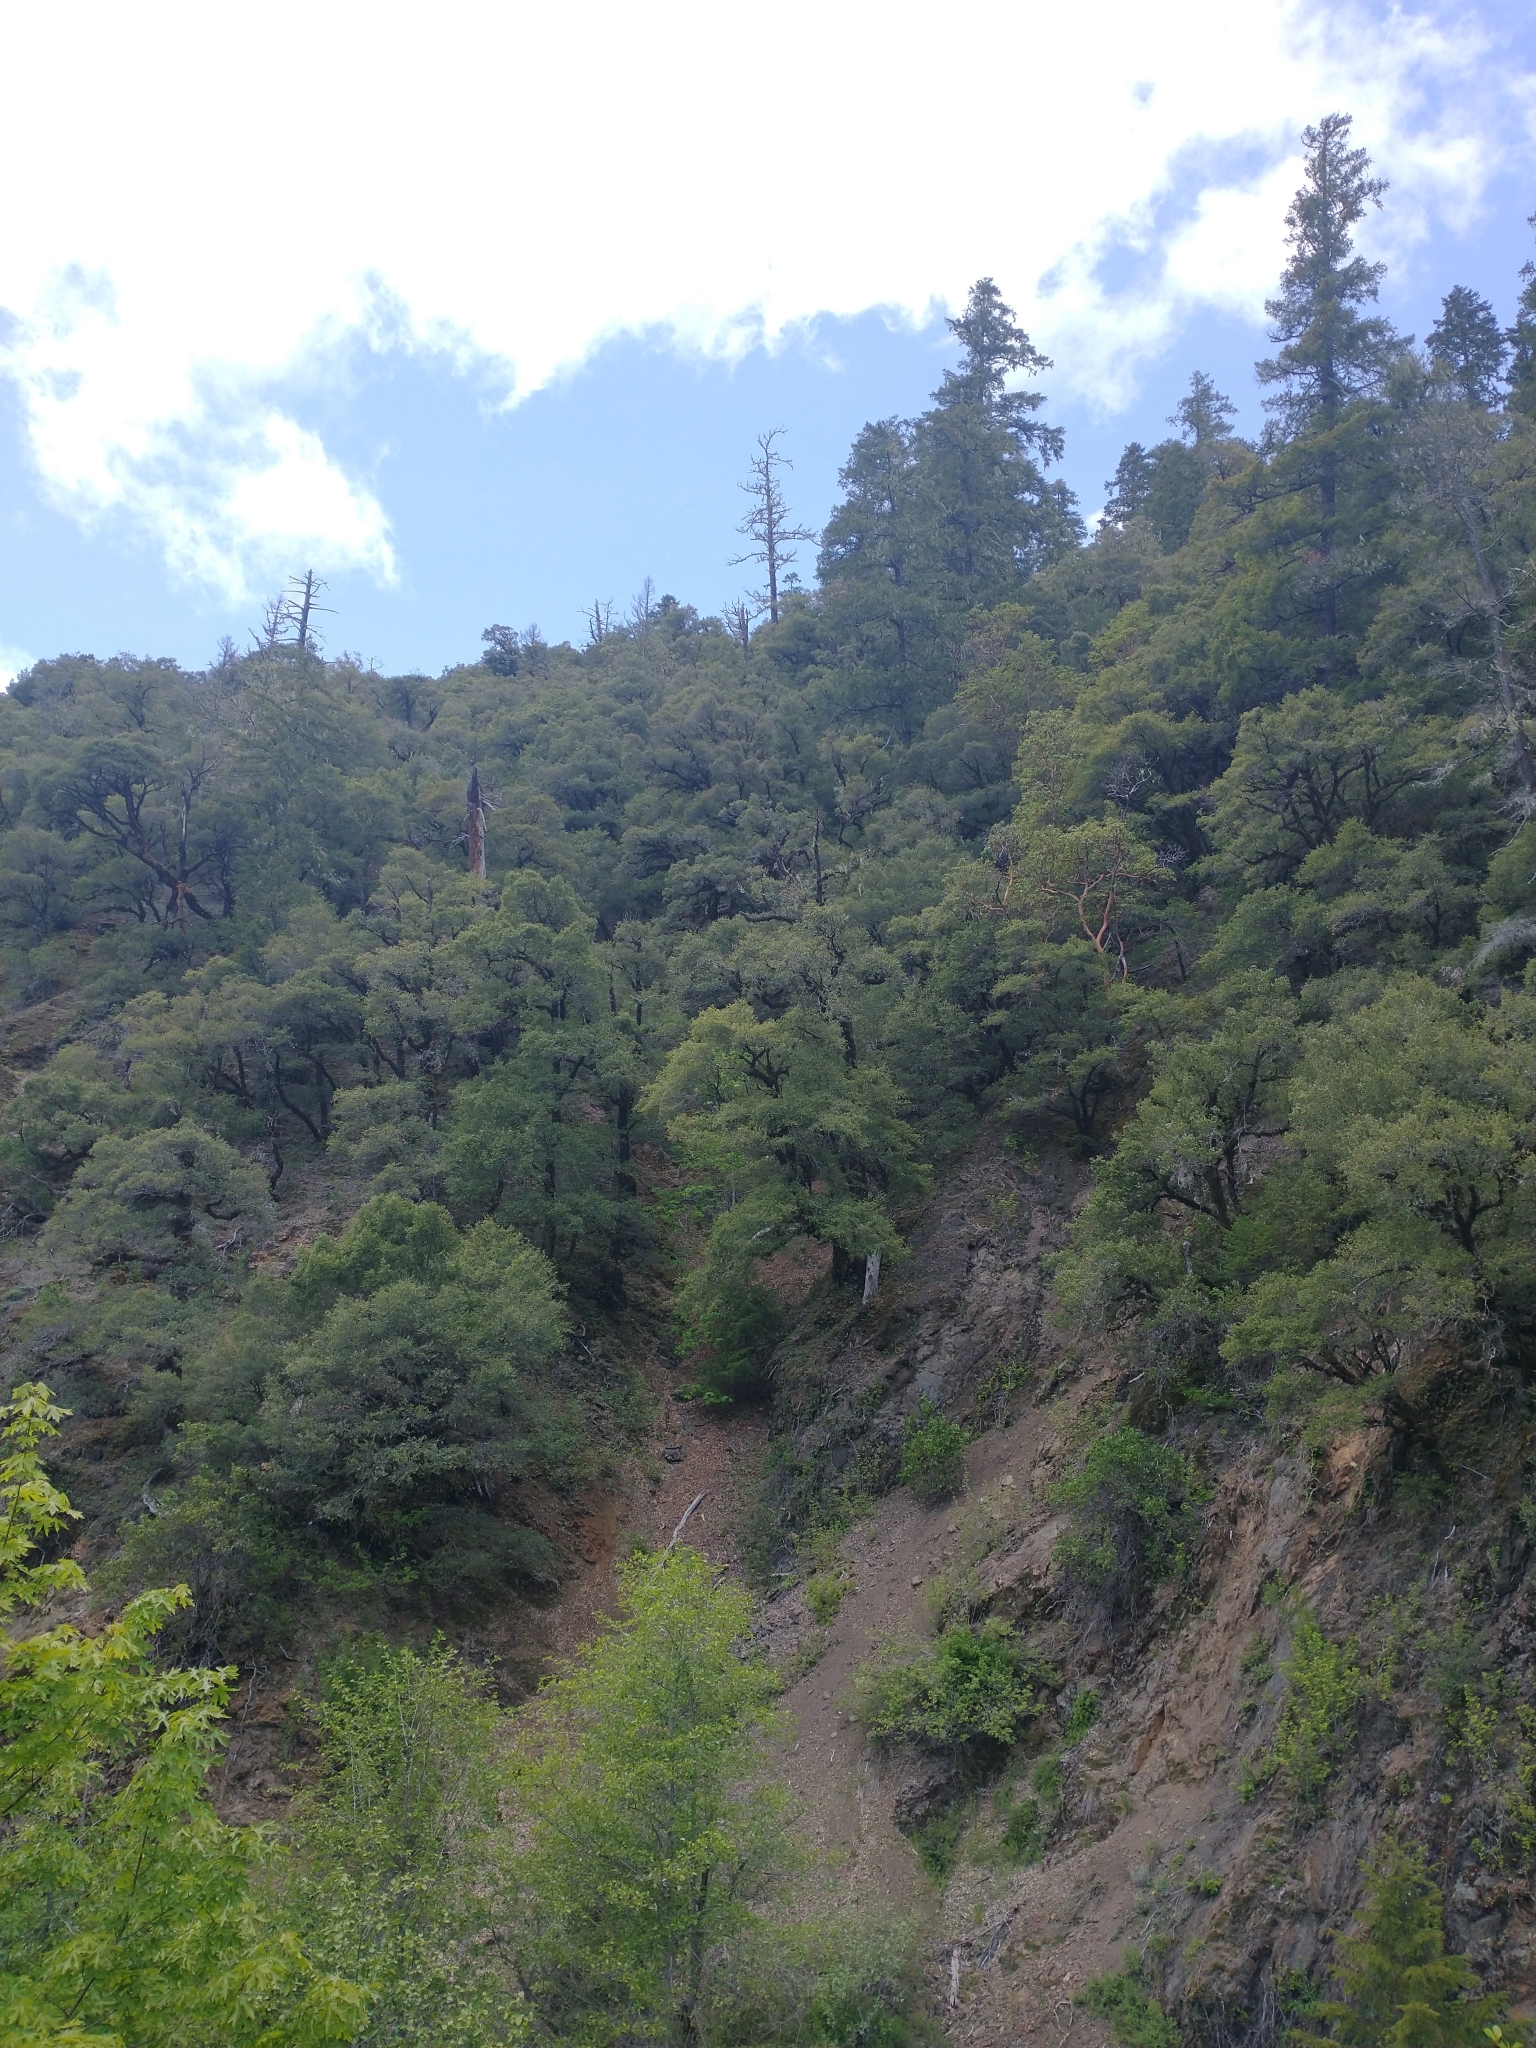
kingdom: Plantae
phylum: Tracheophyta
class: Pinopsida
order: Pinales
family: Pinaceae
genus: Pseudotsuga
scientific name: Pseudotsuga menziesii
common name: Douglas fir
